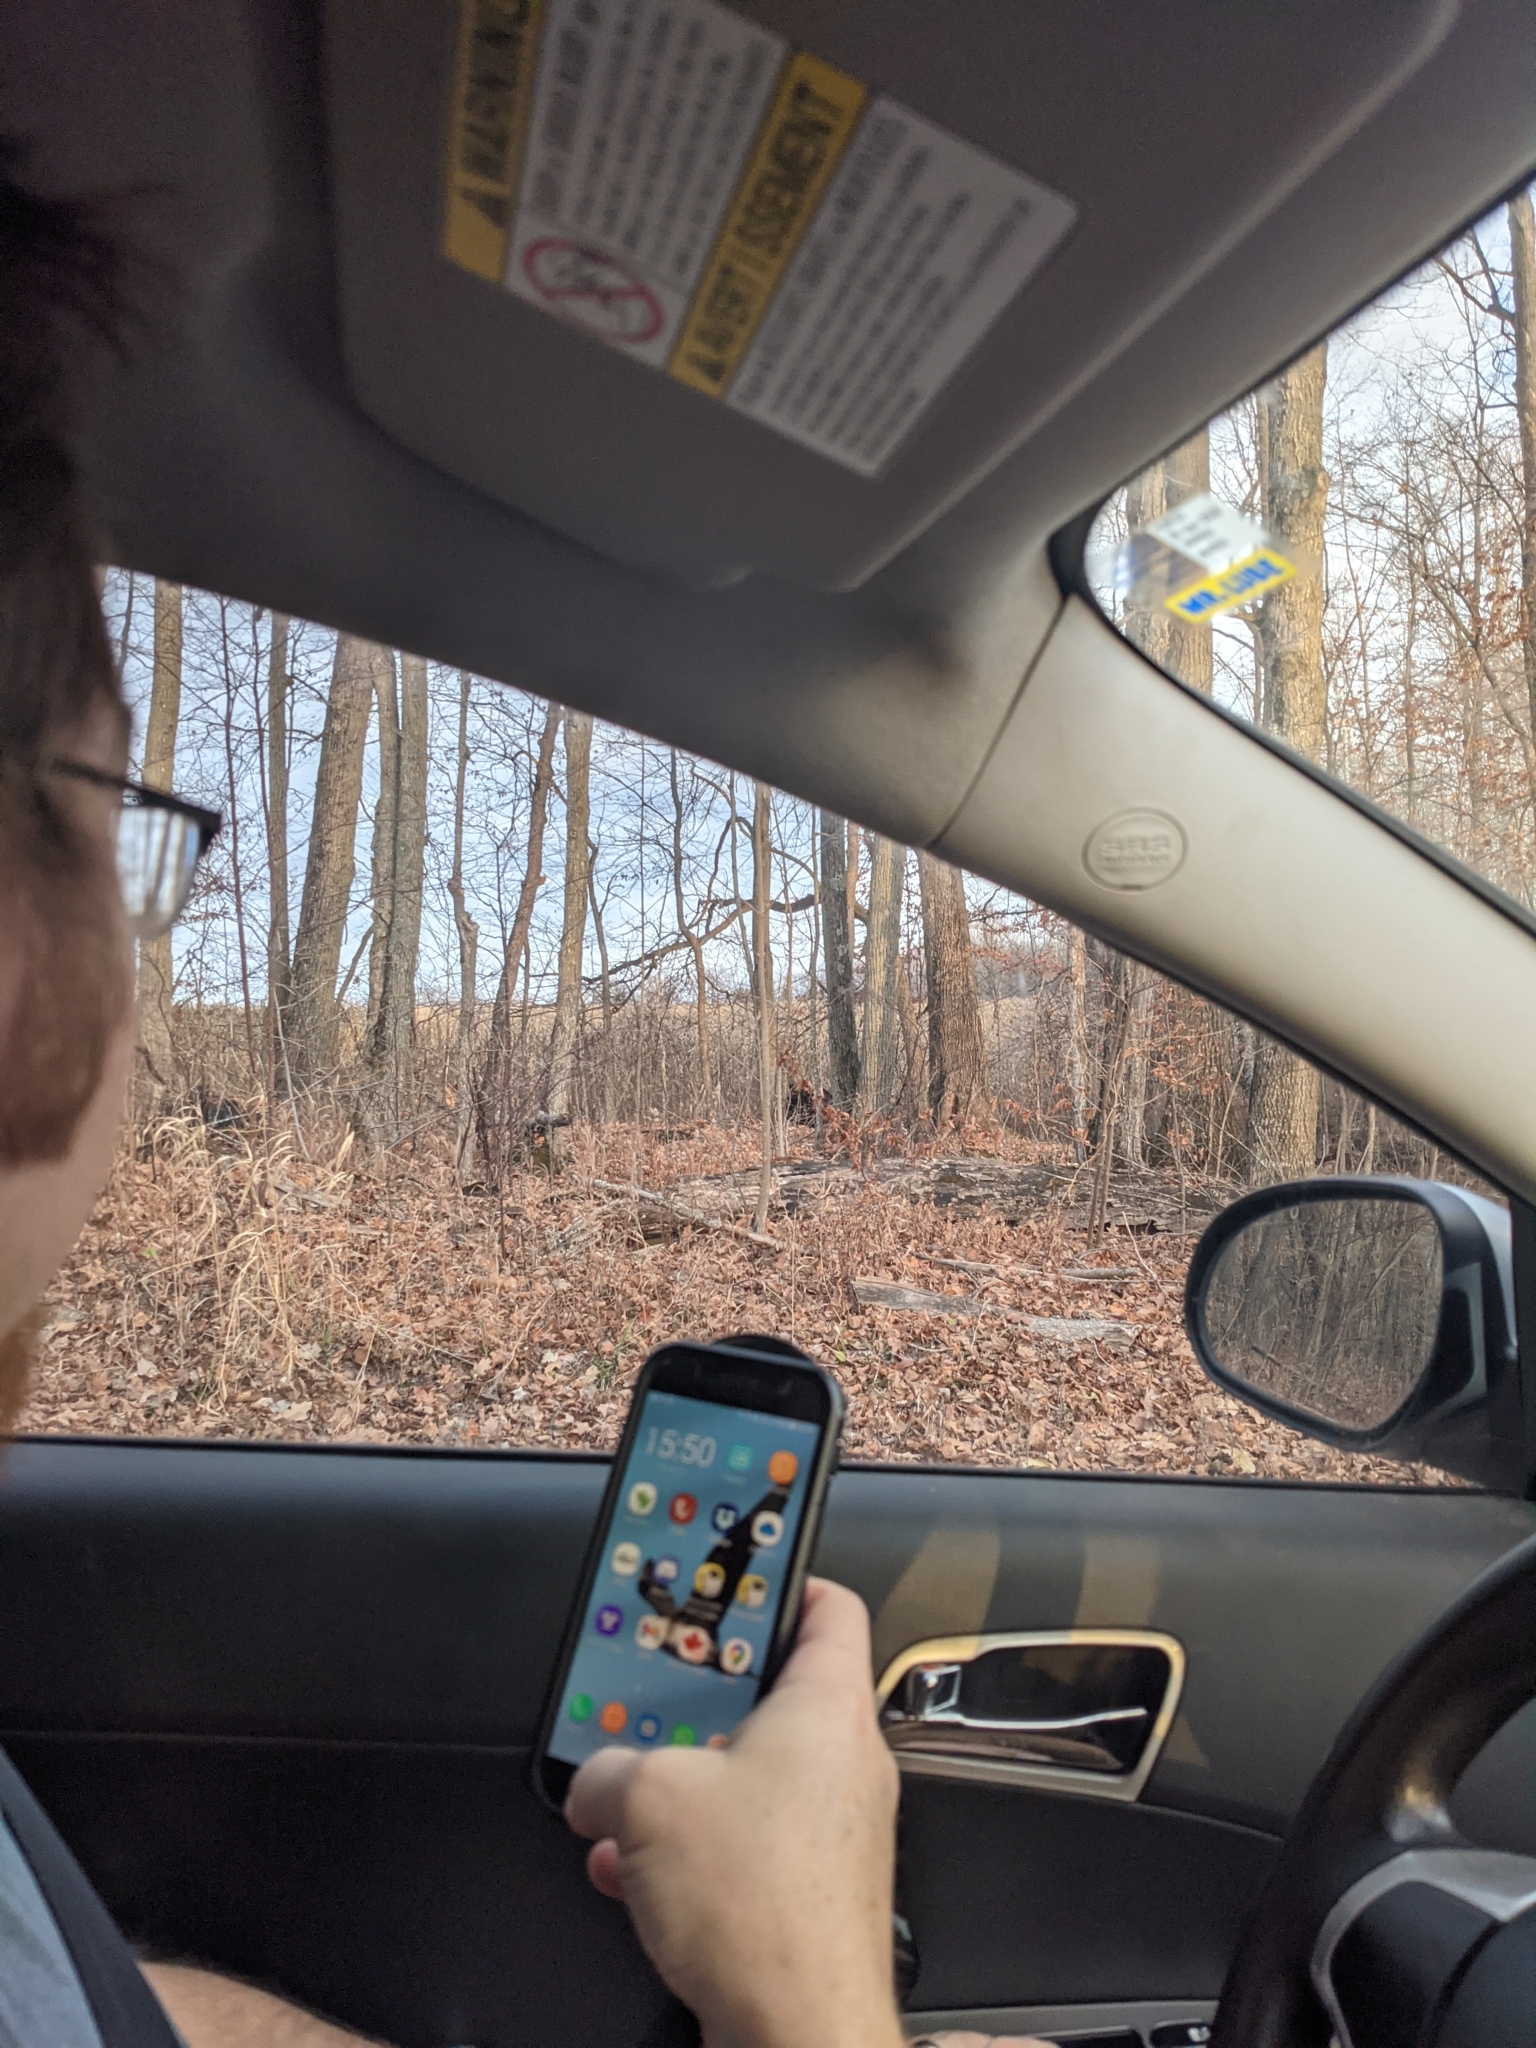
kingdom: Animalia
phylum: Chordata
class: Mammalia
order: Carnivora
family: Ursidae
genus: Ursus
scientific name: Ursus americanus
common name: American black bear
